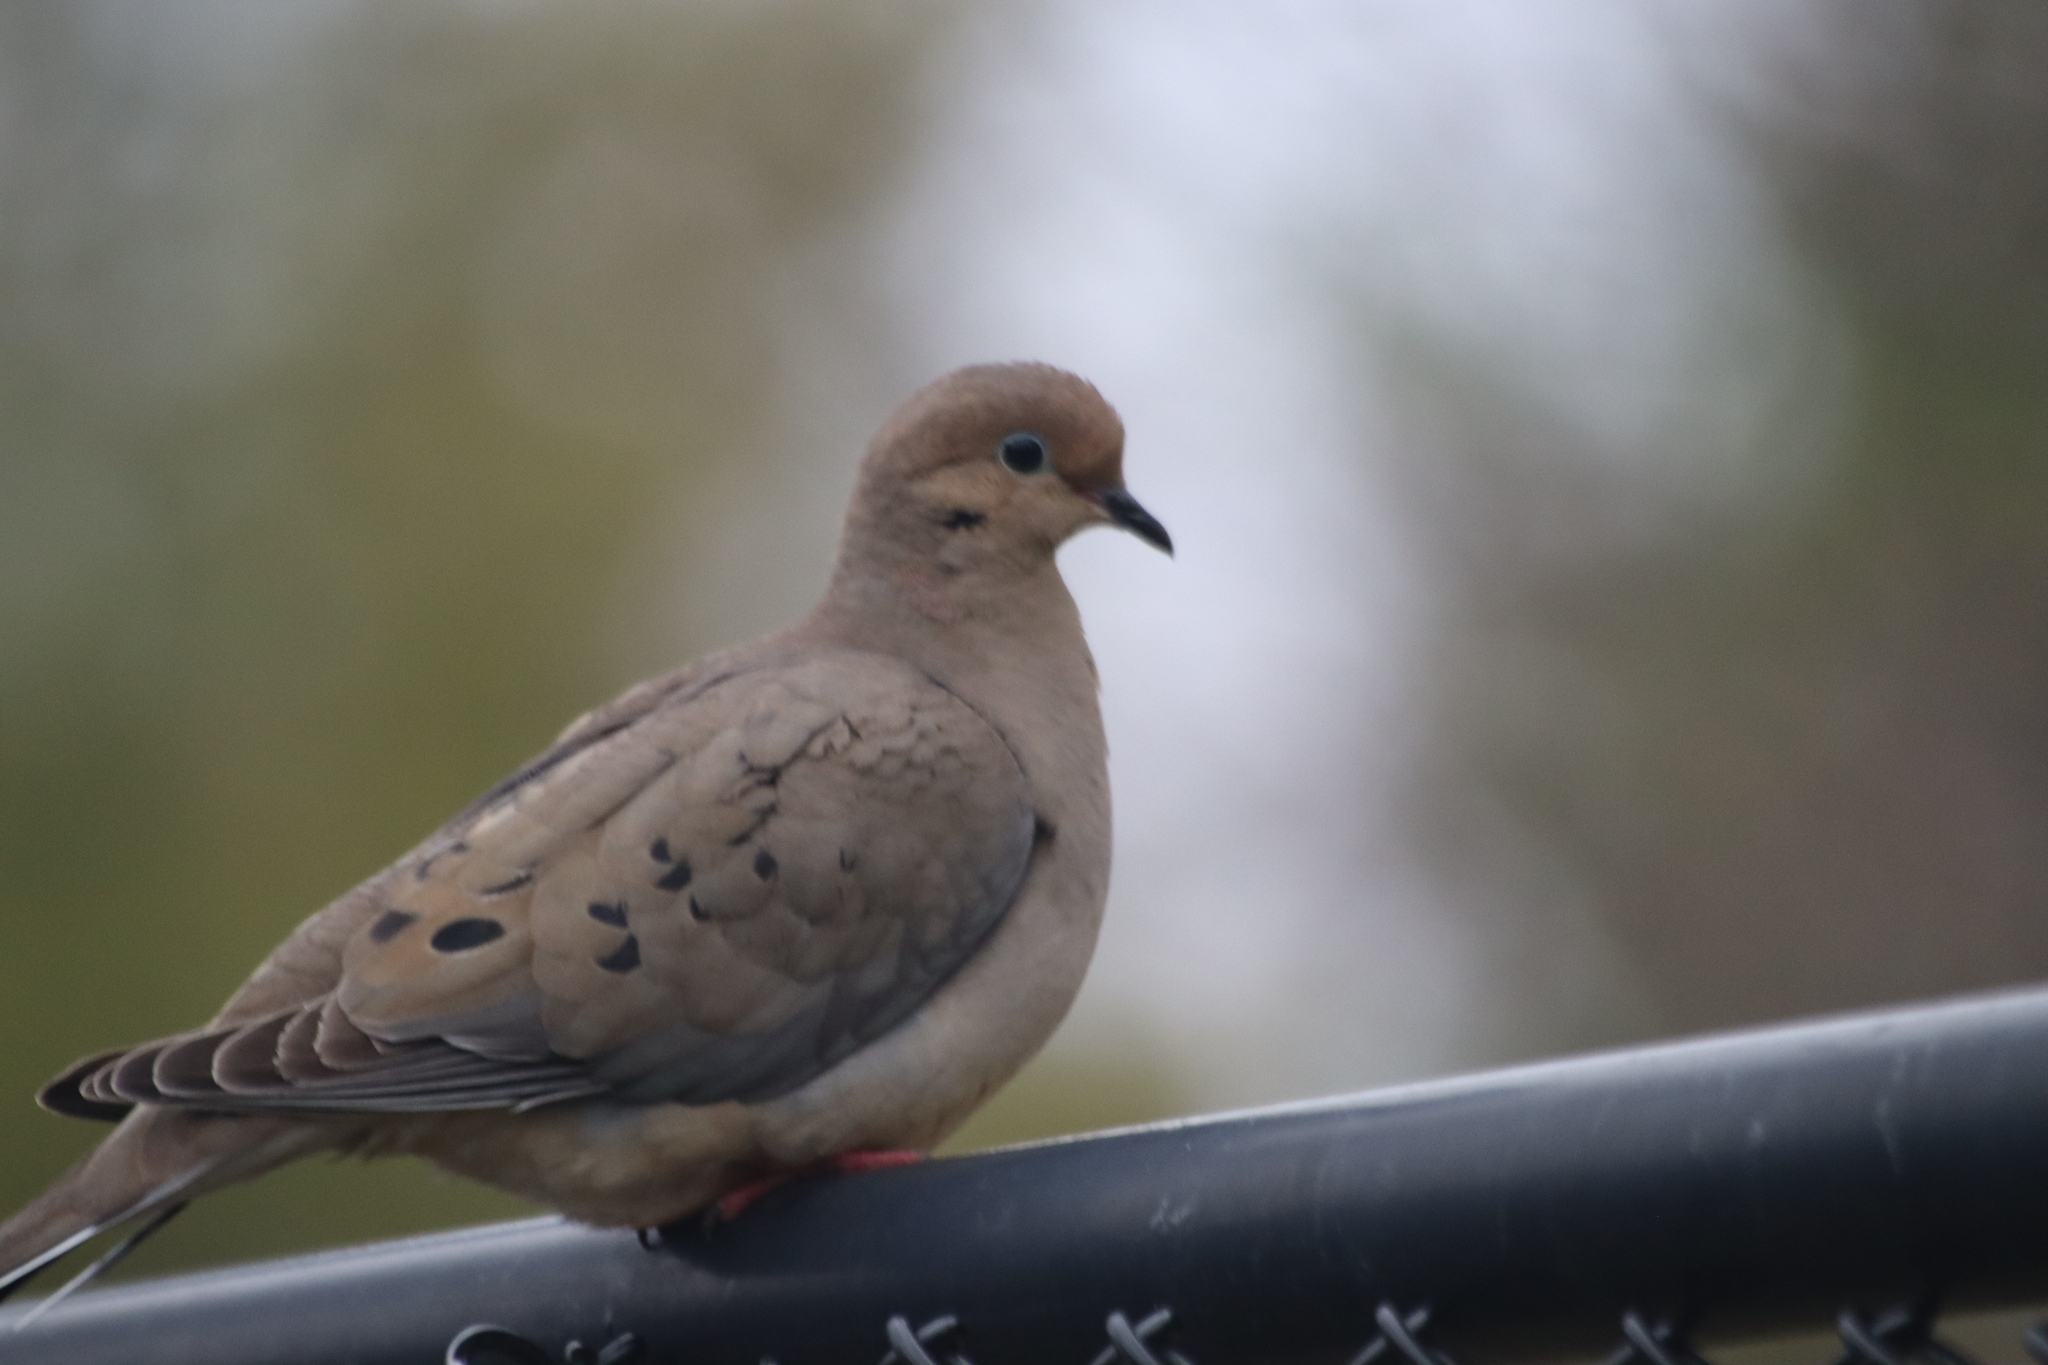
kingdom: Animalia
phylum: Chordata
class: Aves
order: Columbiformes
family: Columbidae
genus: Zenaida
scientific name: Zenaida macroura
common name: Mourning dove
